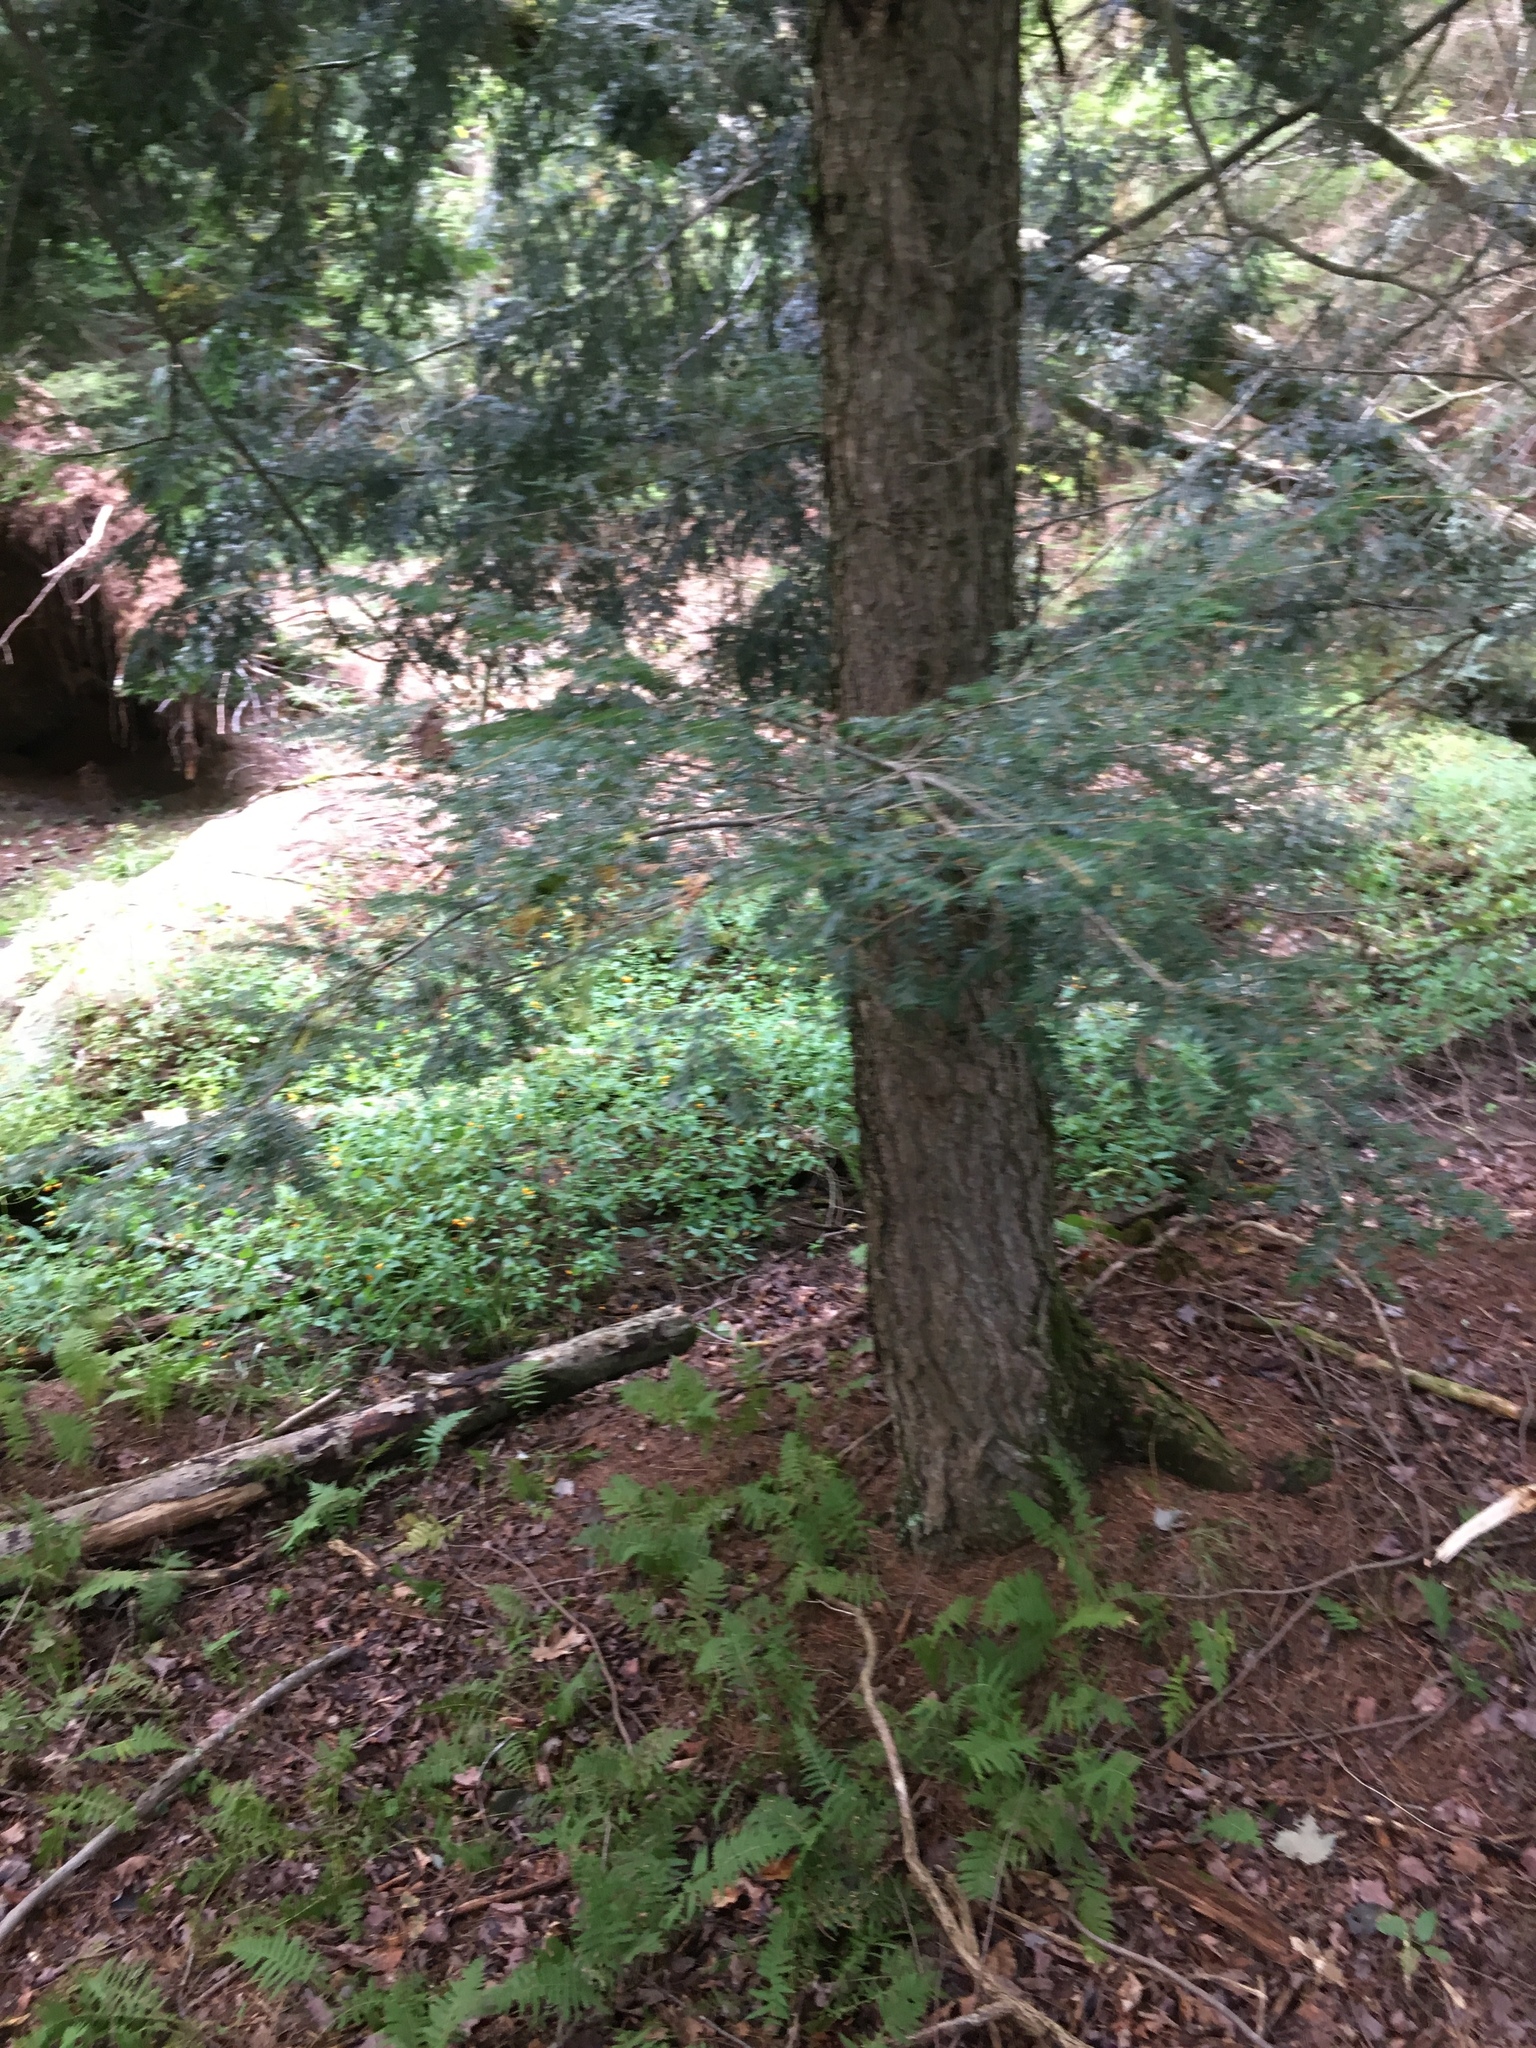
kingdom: Plantae
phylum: Tracheophyta
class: Pinopsida
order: Pinales
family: Pinaceae
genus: Tsuga
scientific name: Tsuga canadensis
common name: Eastern hemlock
